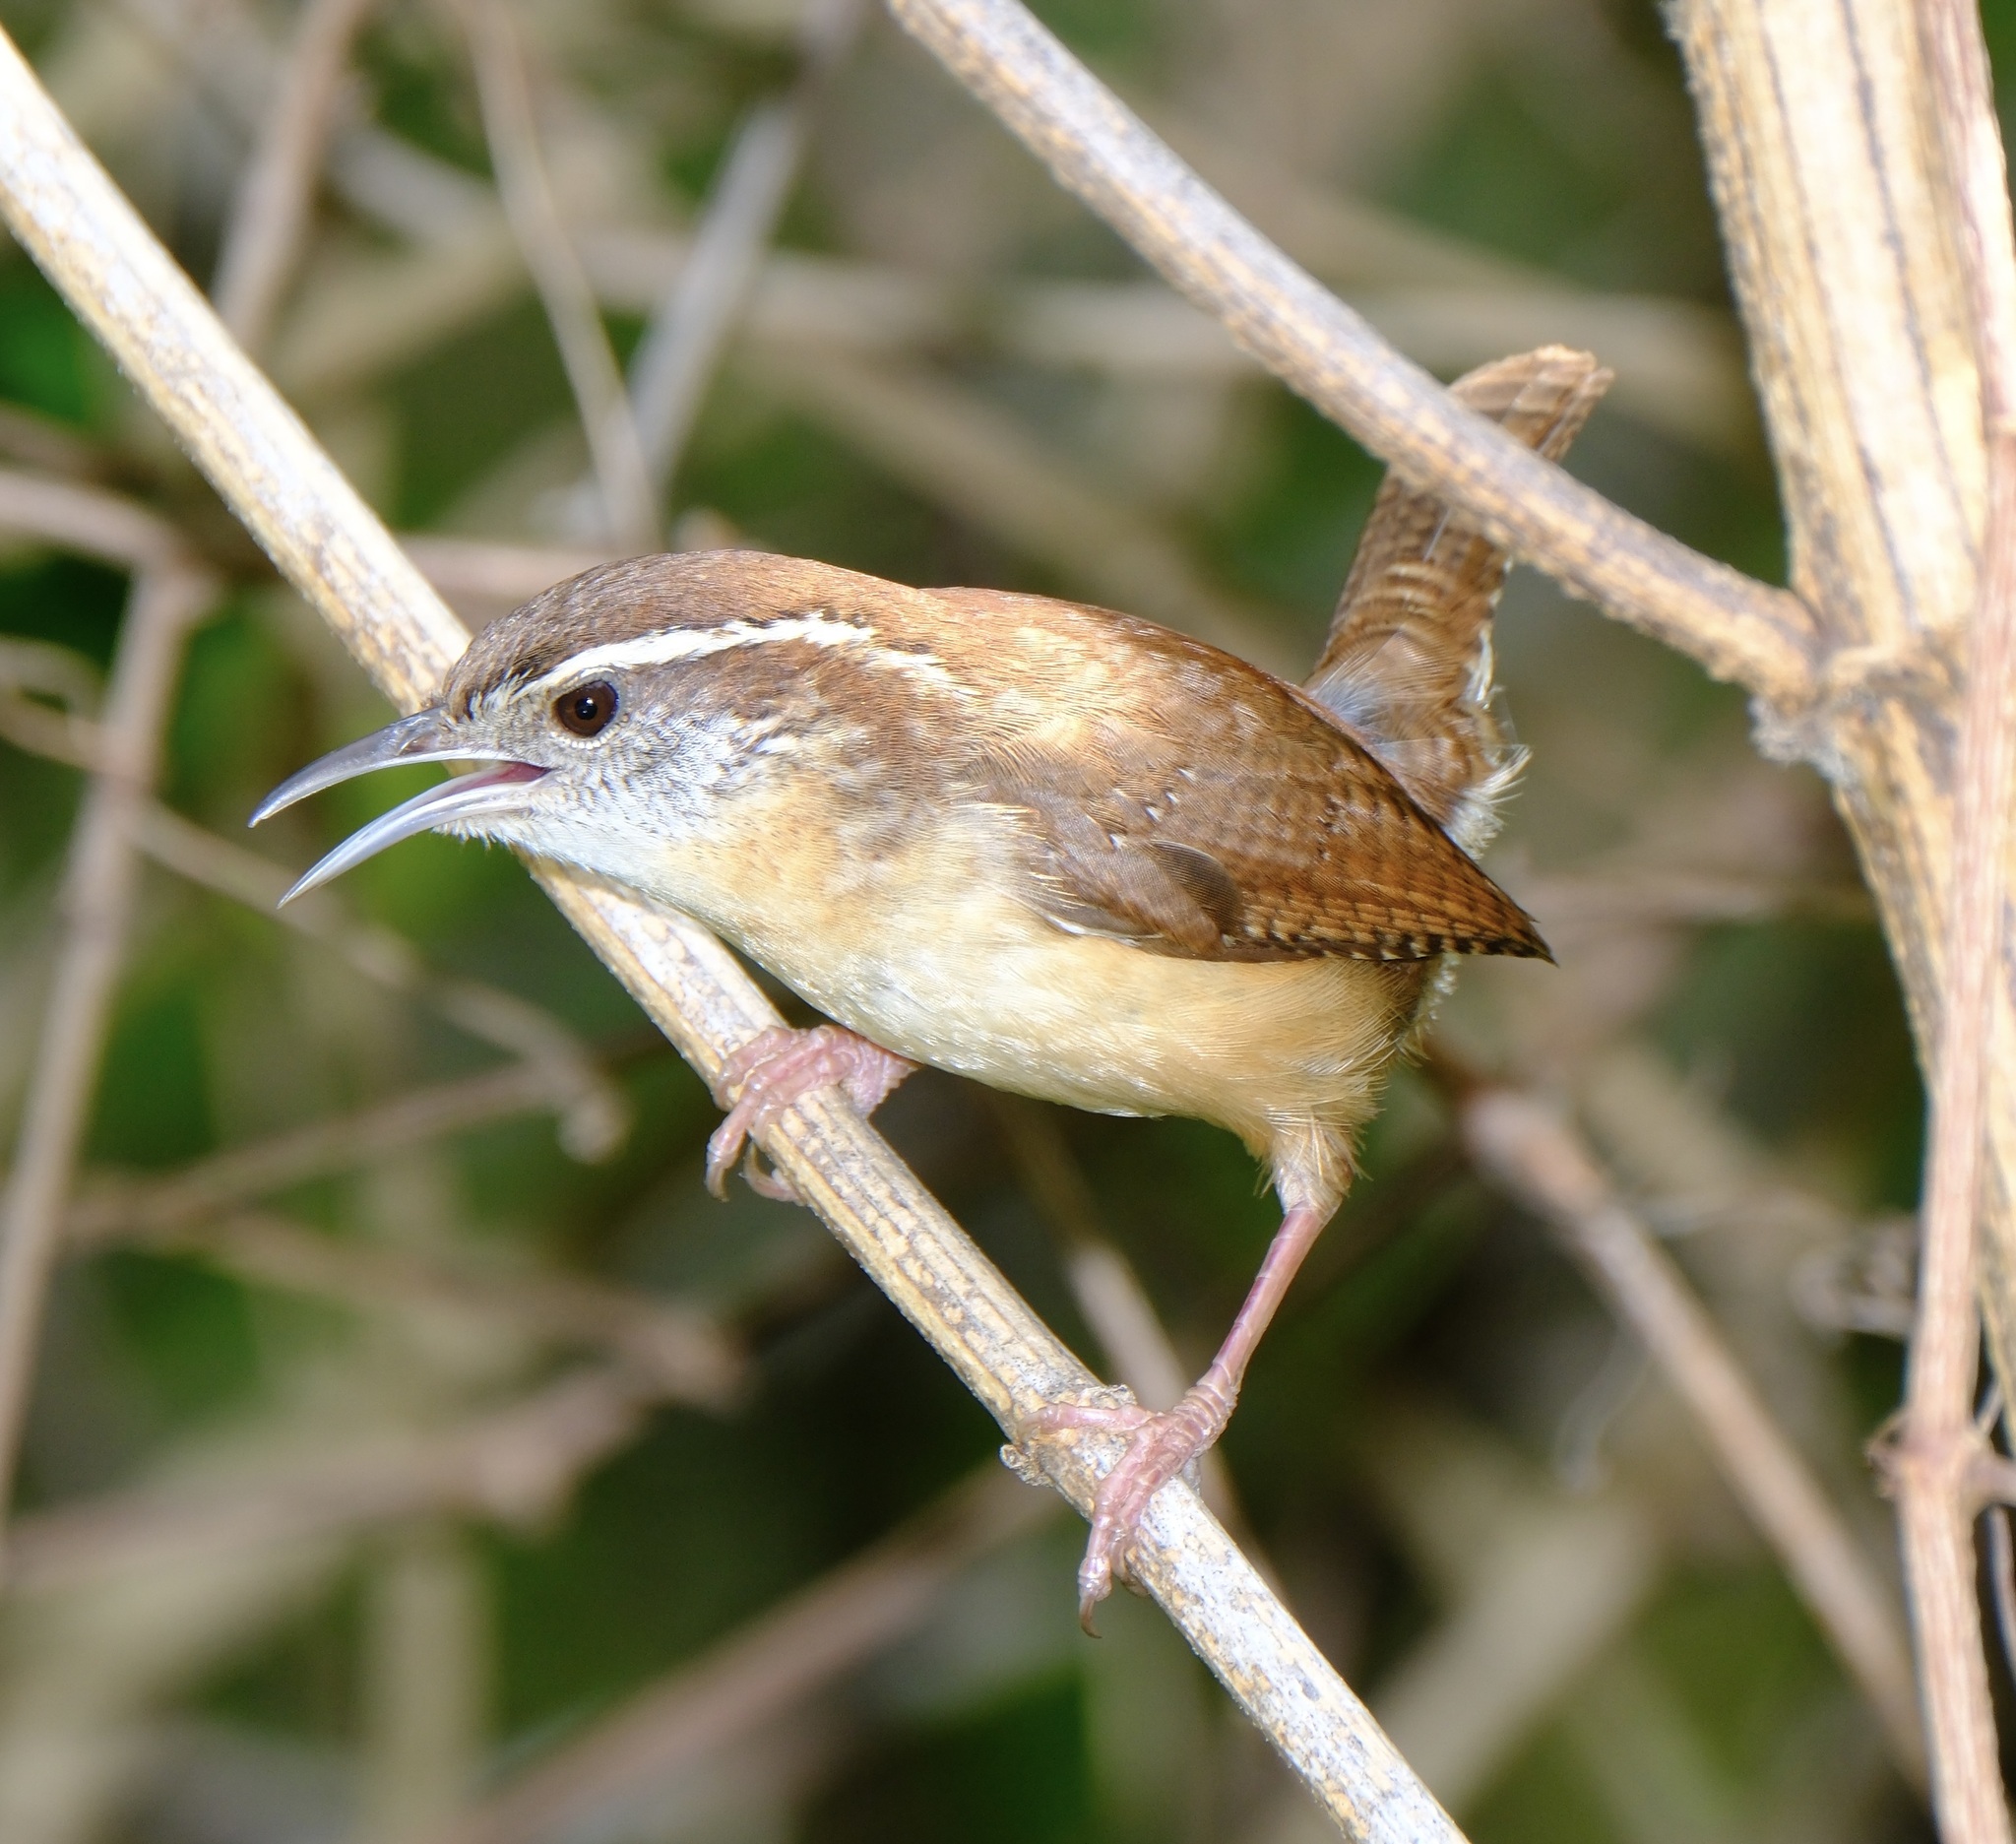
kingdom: Animalia
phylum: Chordata
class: Aves
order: Passeriformes
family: Troglodytidae
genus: Thryothorus
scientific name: Thryothorus ludovicianus
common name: Carolina wren
